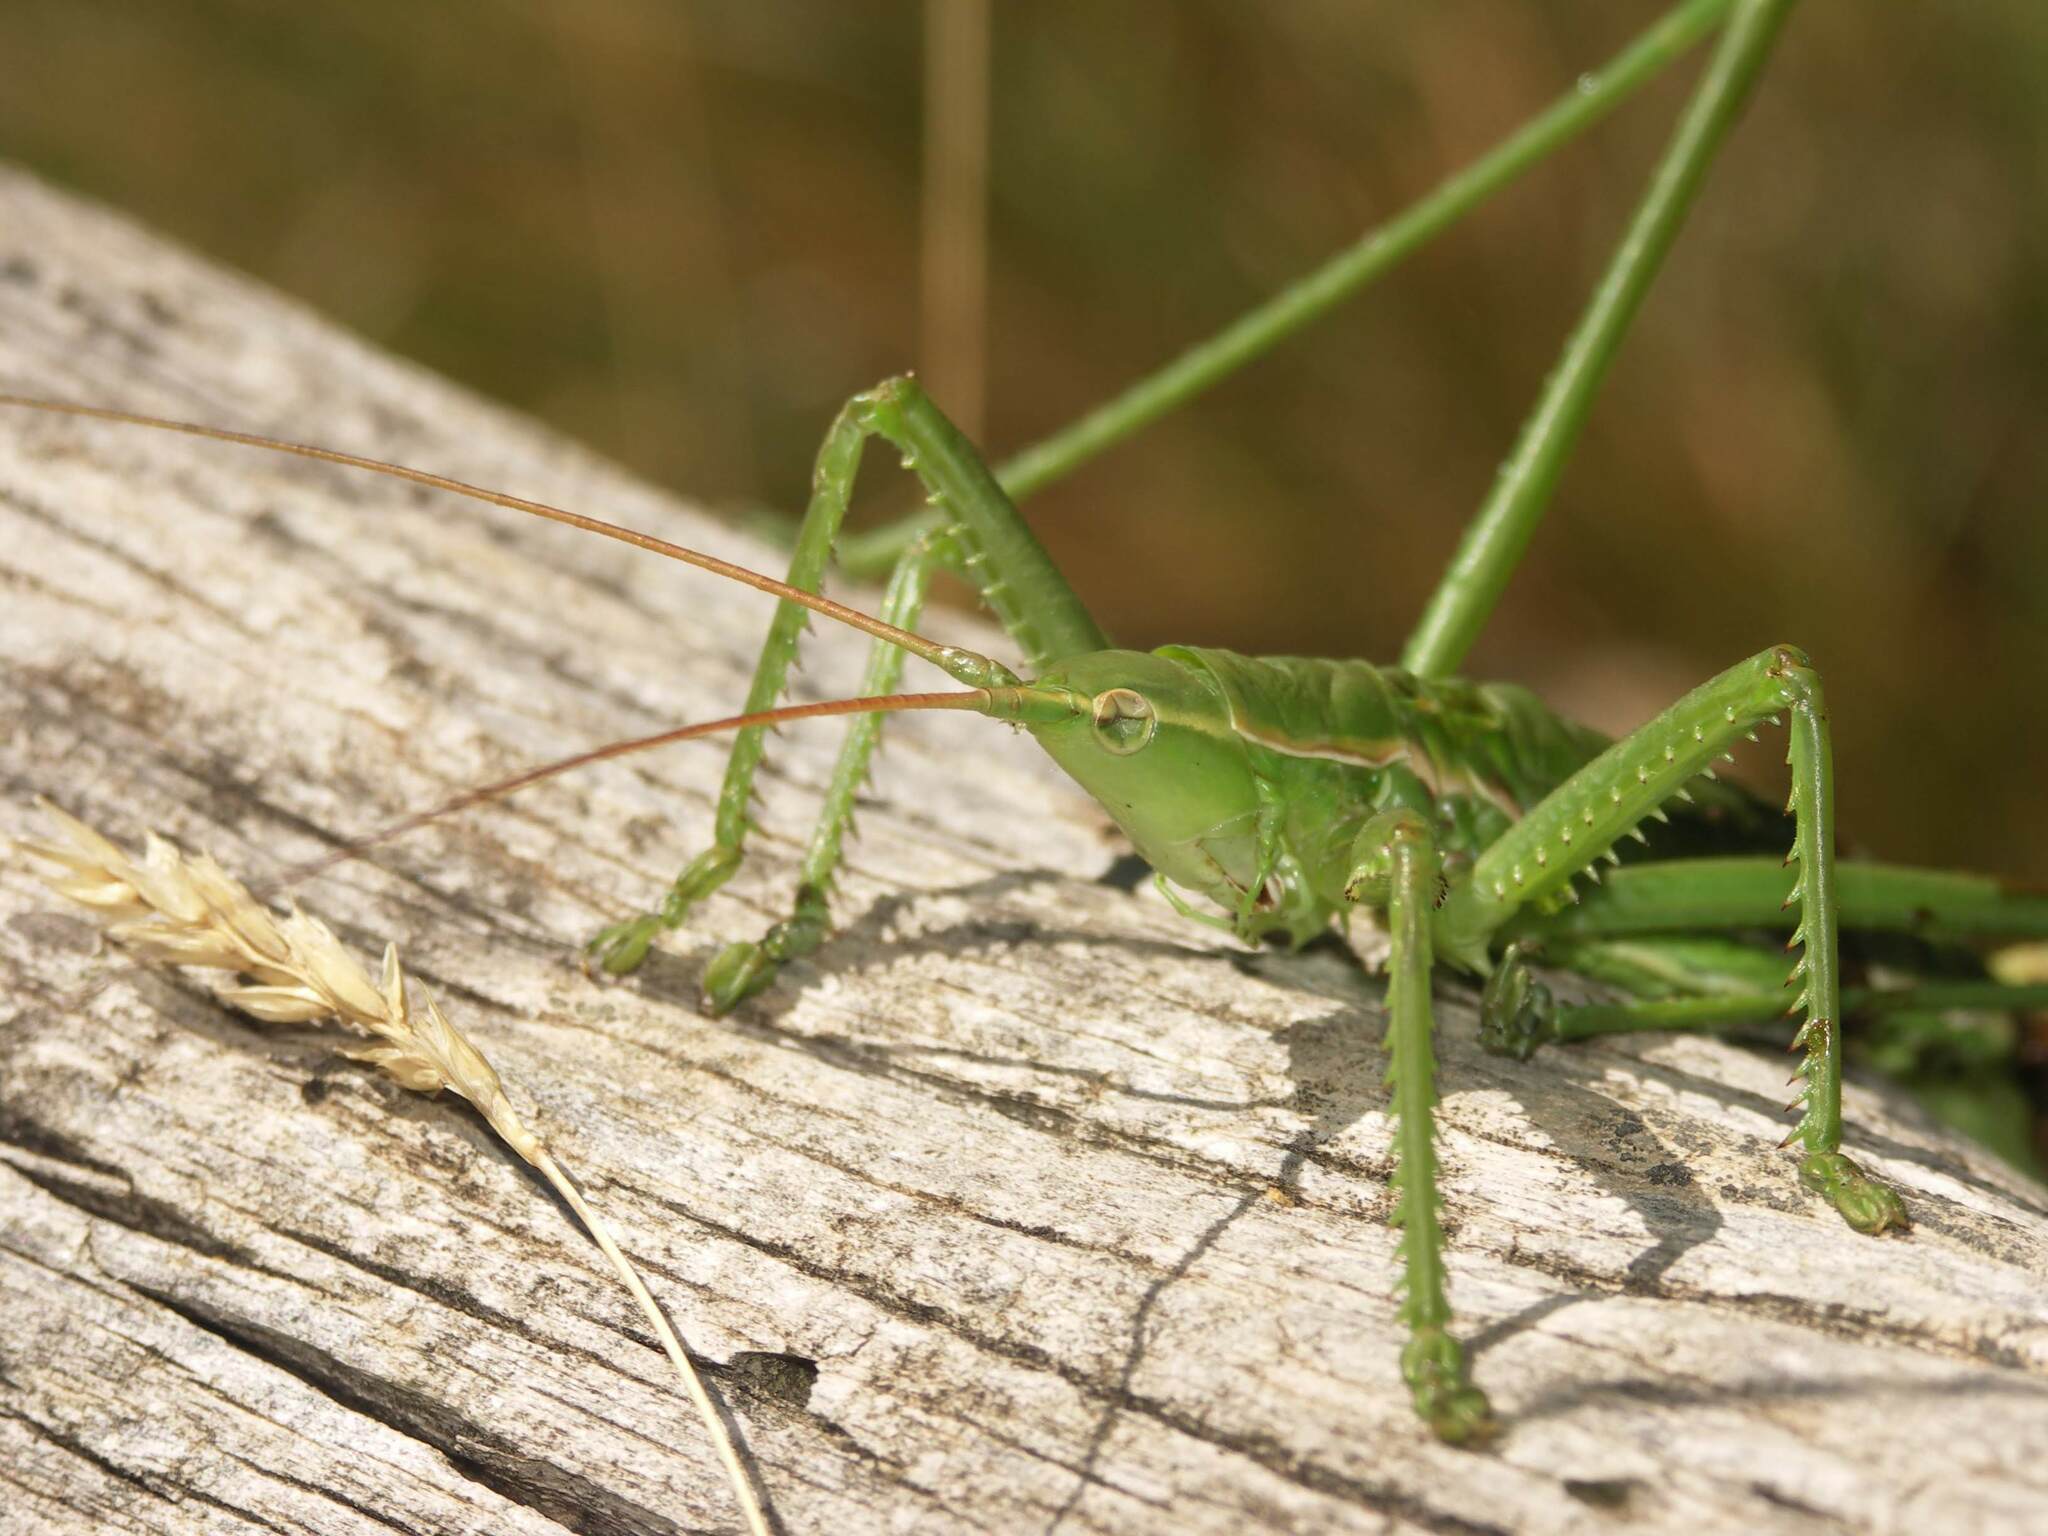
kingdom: Animalia
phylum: Arthropoda
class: Insecta
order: Orthoptera
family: Tettigoniidae
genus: Saga
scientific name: Saga pedo
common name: Common predatory bush-cricket
